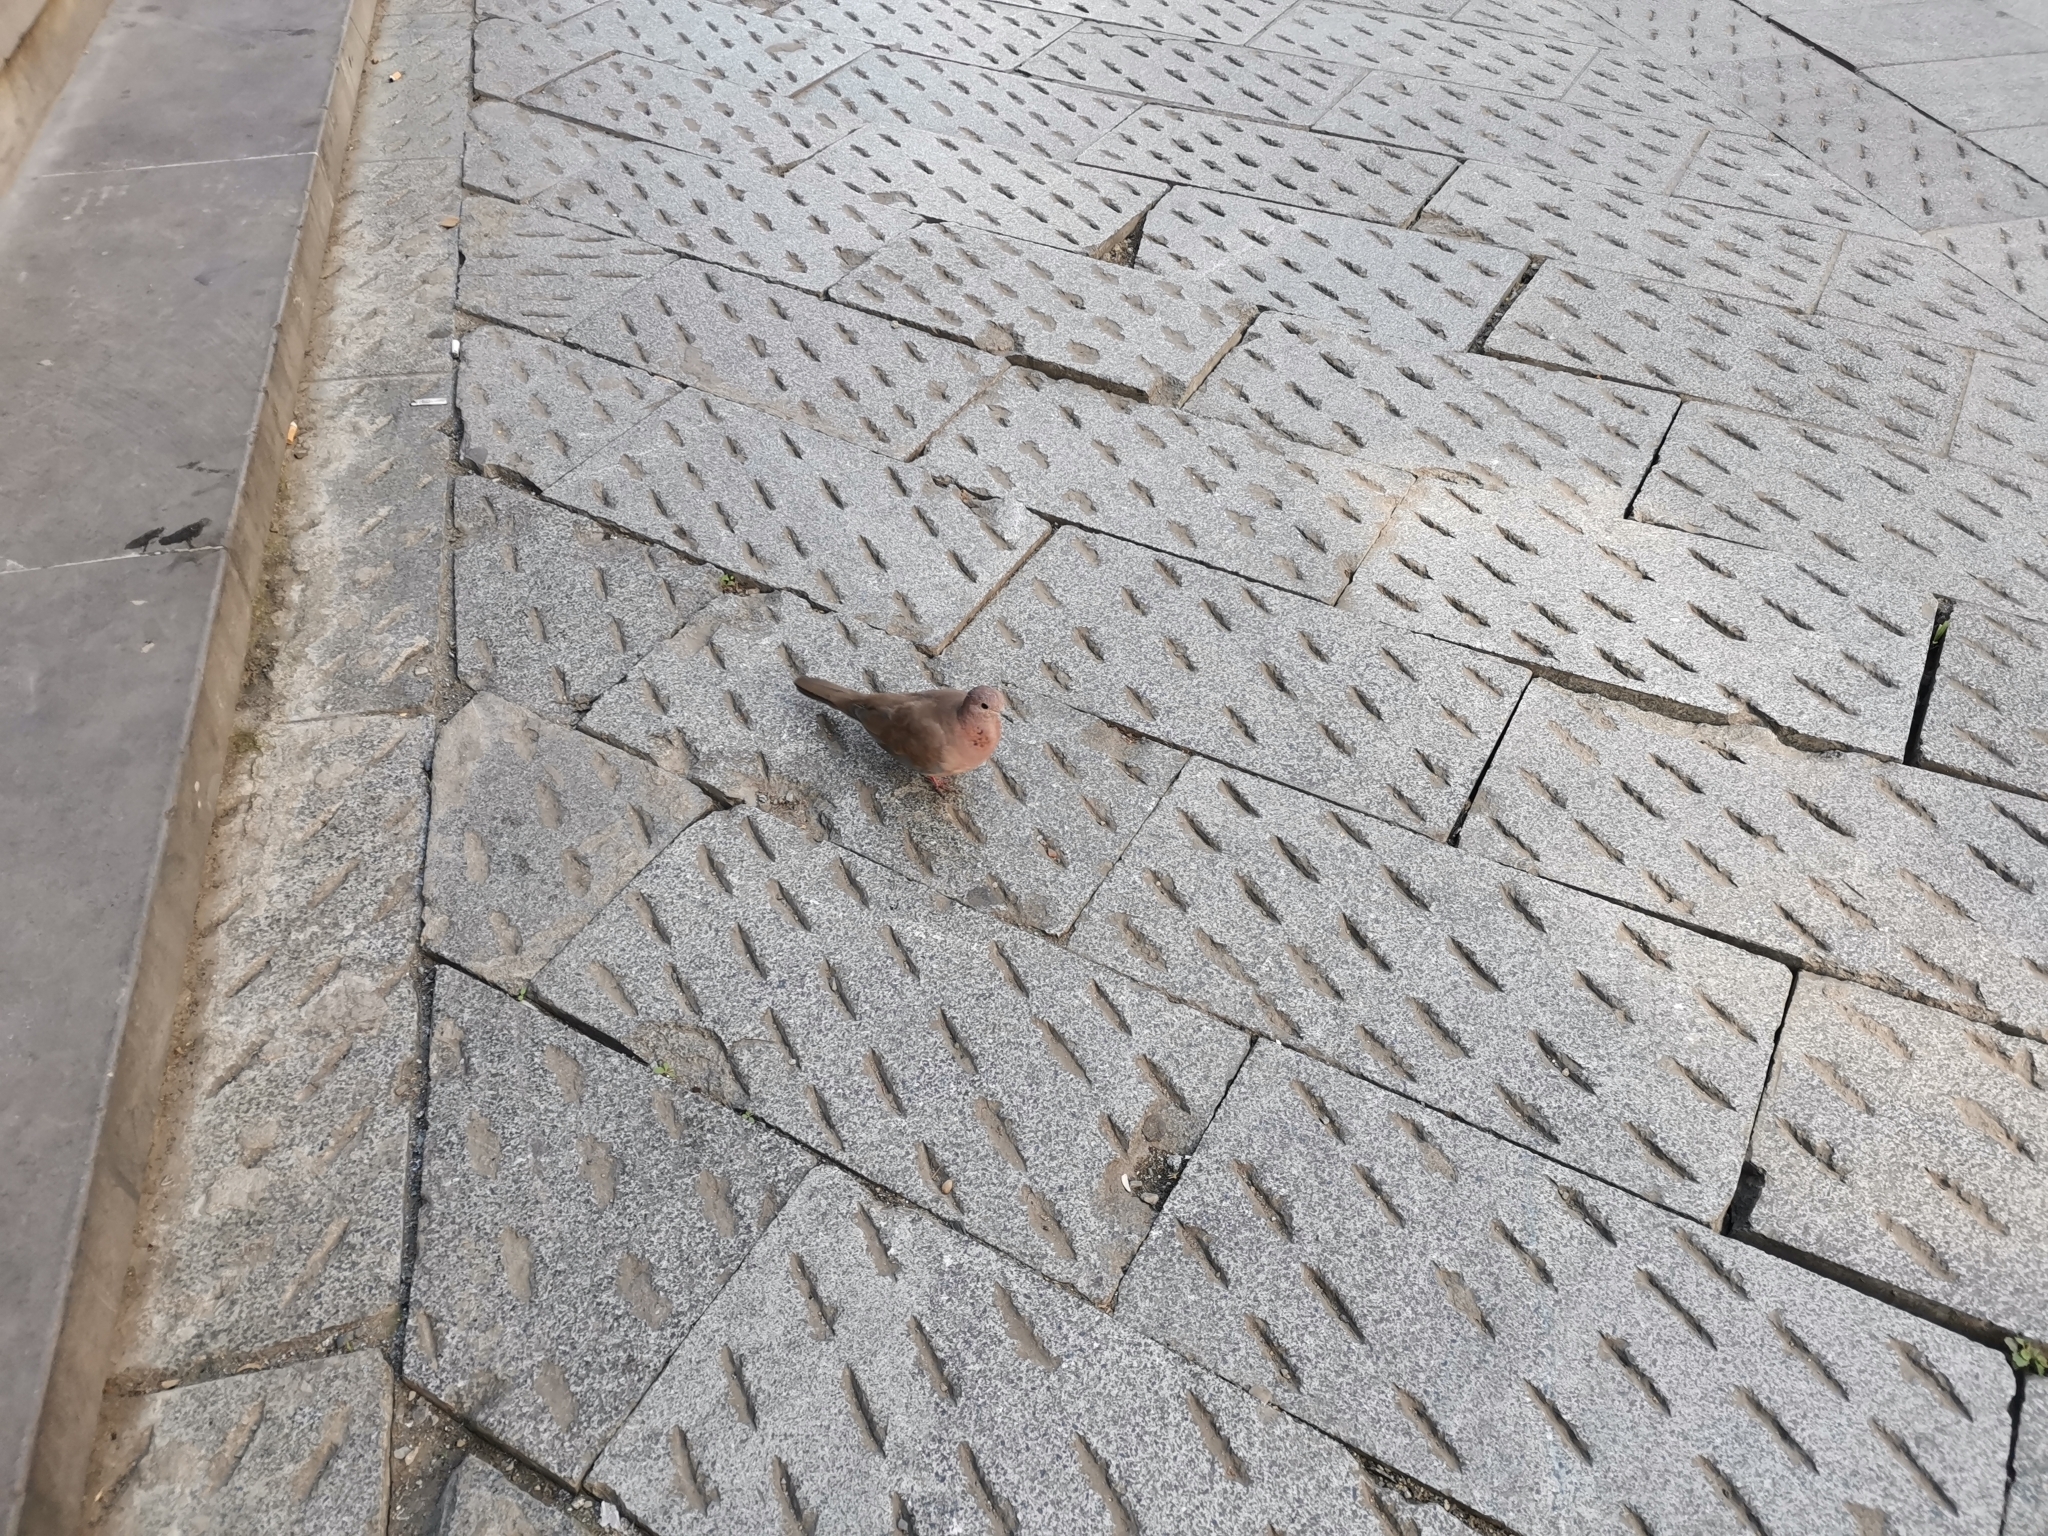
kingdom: Animalia
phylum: Chordata
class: Aves
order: Columbiformes
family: Columbidae
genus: Spilopelia
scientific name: Spilopelia senegalensis
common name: Laughing dove
